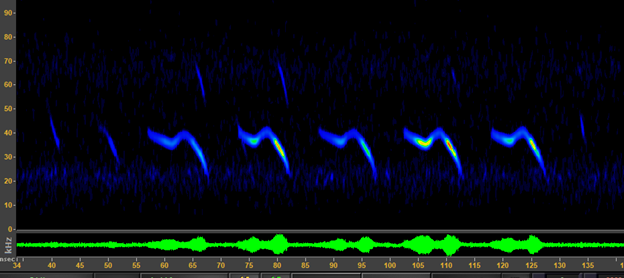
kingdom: Animalia
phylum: Chordata
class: Mammalia
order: Chiroptera
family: Vespertilionidae
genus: Corynorhinus
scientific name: Corynorhinus townsendii
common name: Townsend's big-eared bat
